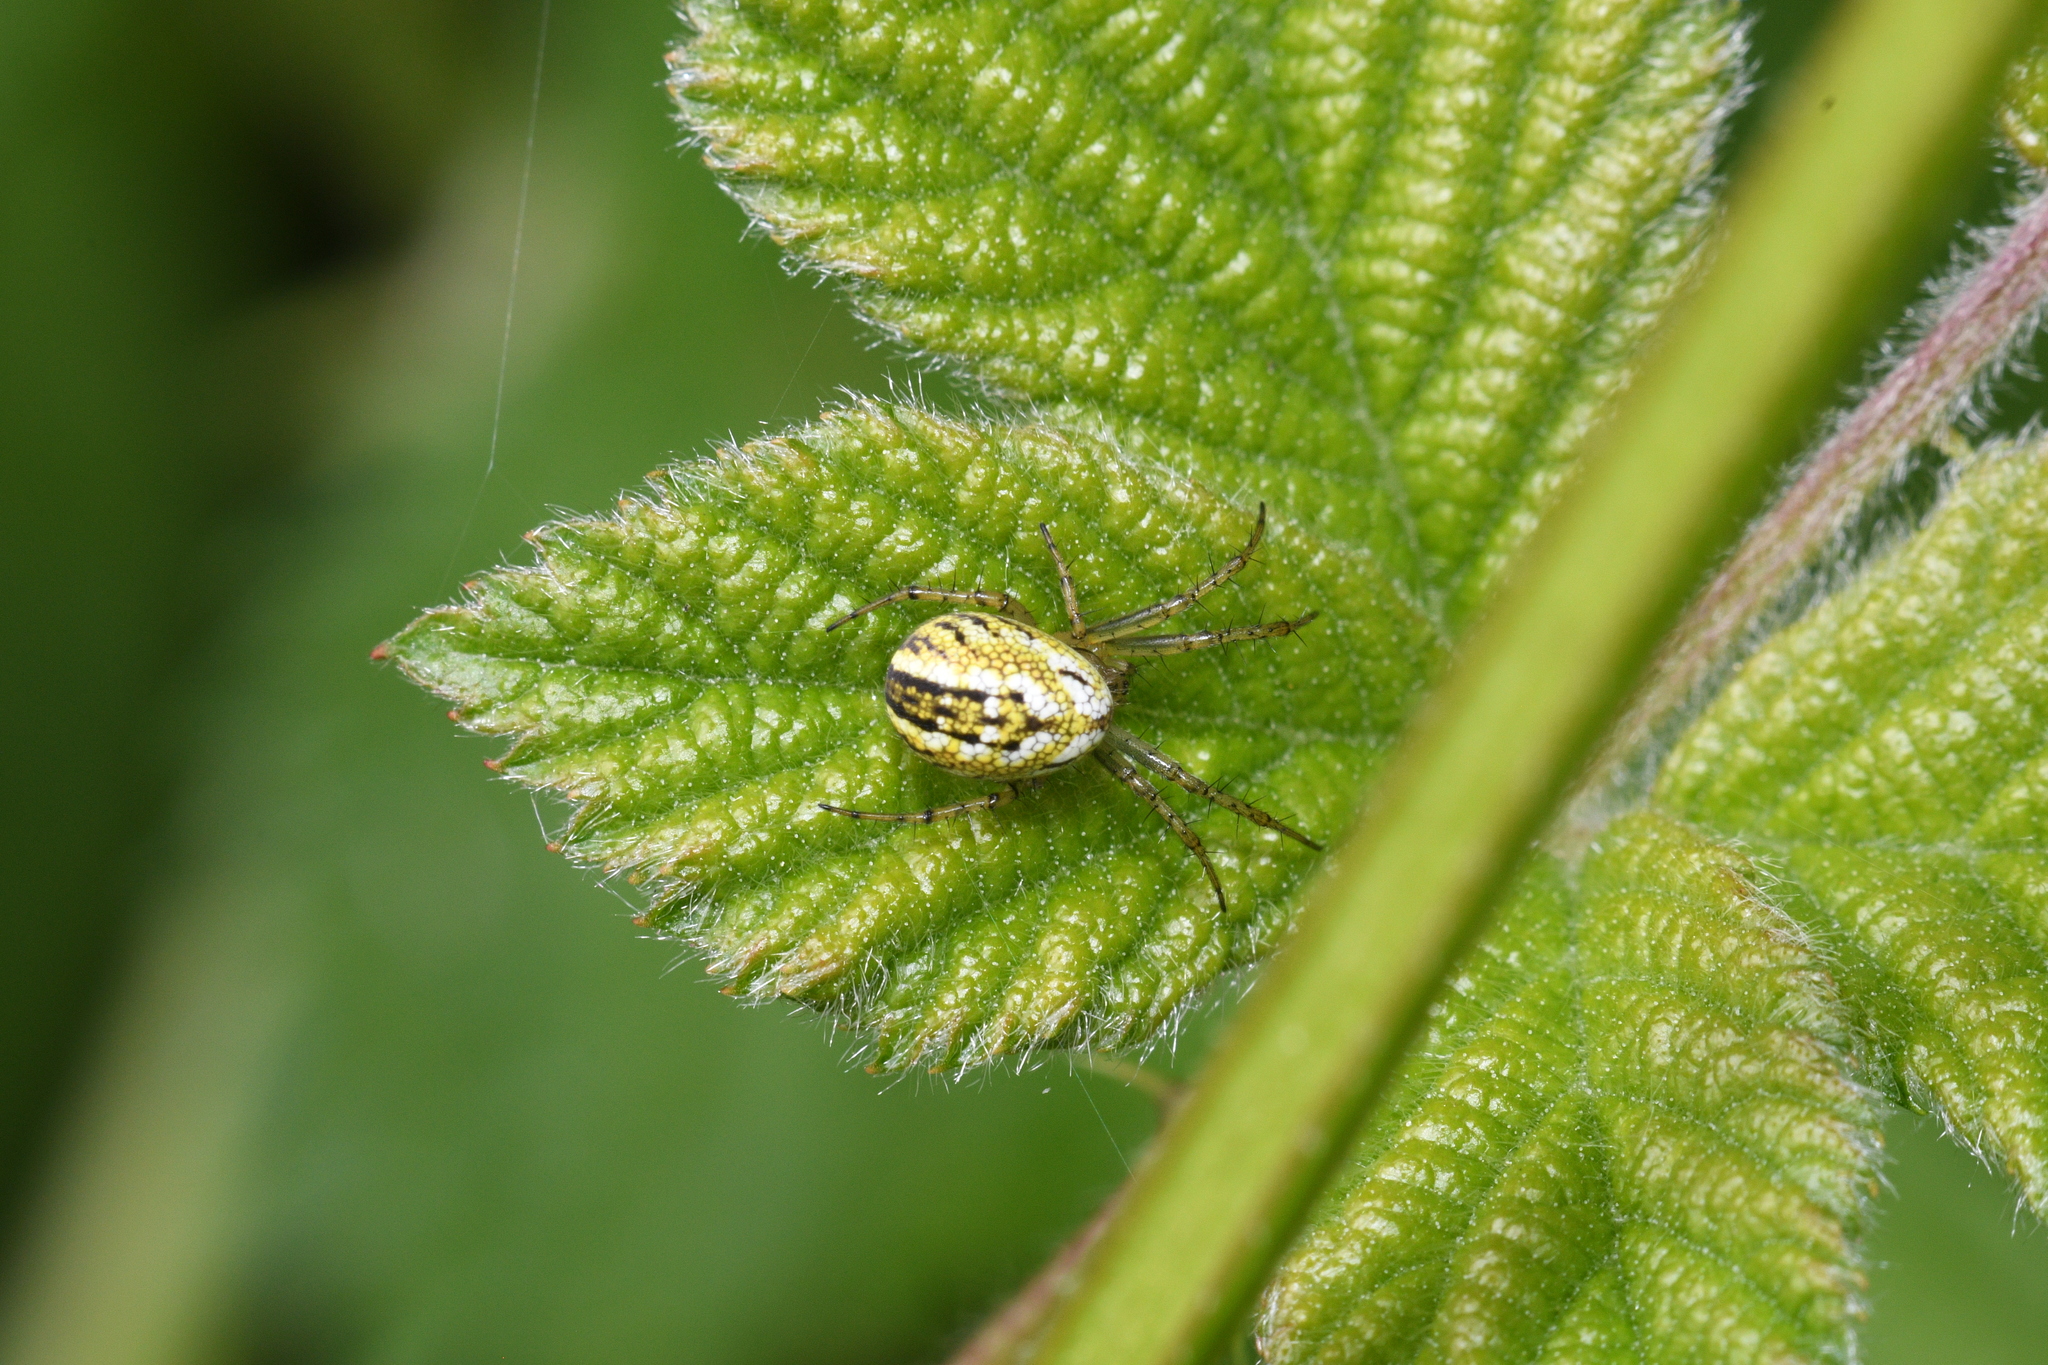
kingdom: Animalia
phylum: Arthropoda
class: Arachnida
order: Araneae
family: Araneidae
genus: Mangora
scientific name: Mangora acalypha
